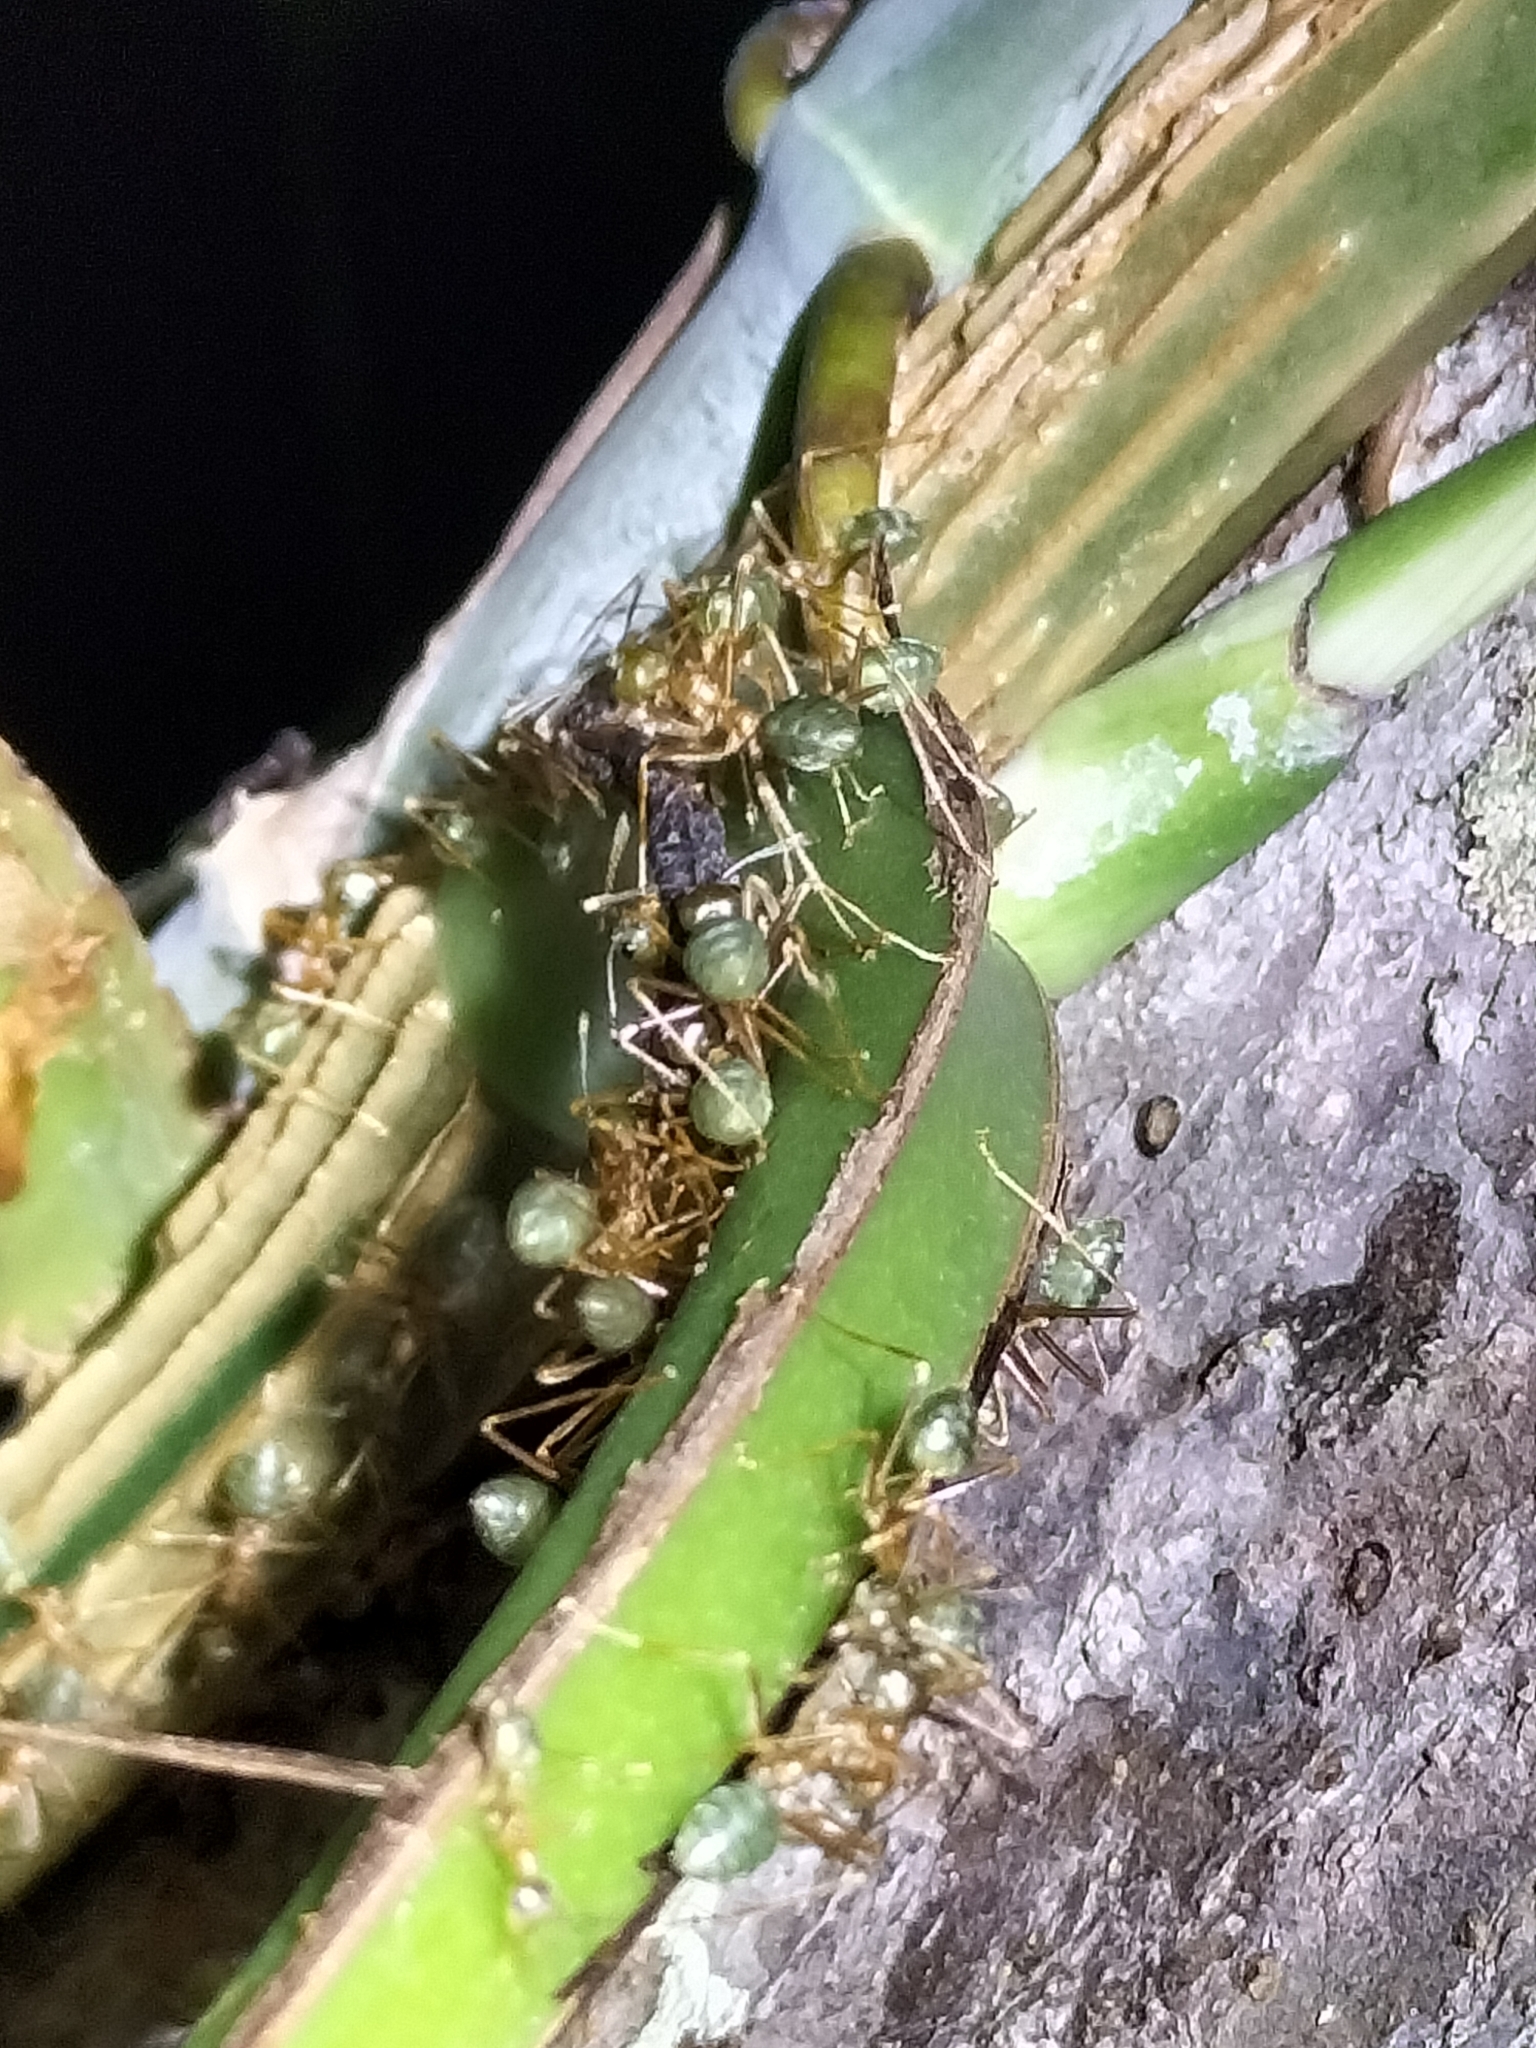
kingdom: Animalia
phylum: Arthropoda
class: Insecta
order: Hymenoptera
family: Formicidae
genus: Oecophylla
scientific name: Oecophylla smaragdina
